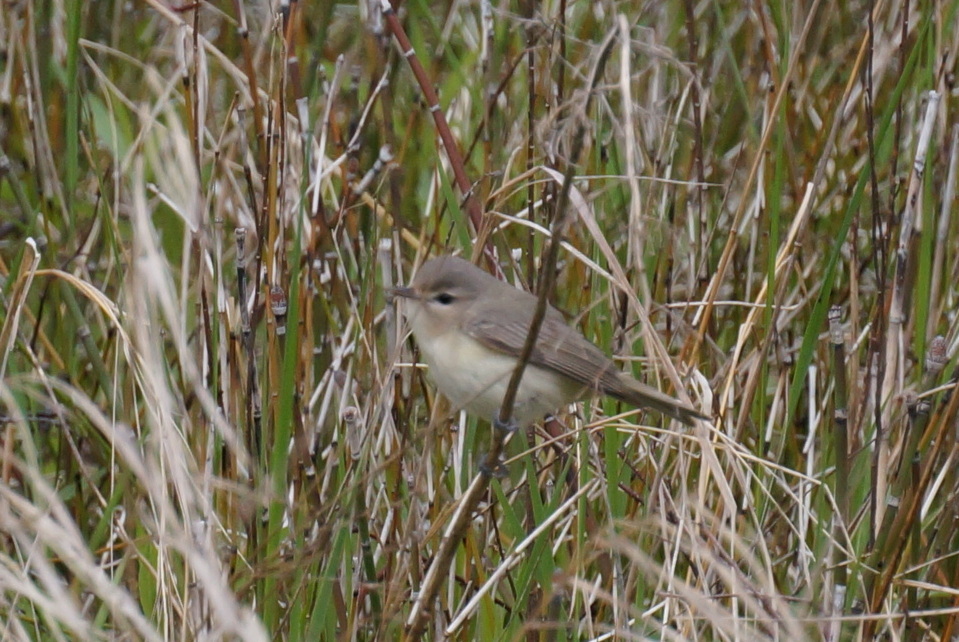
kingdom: Animalia
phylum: Chordata
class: Aves
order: Passeriformes
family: Vireonidae
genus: Vireo
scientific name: Vireo gilvus
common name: Warbling vireo
